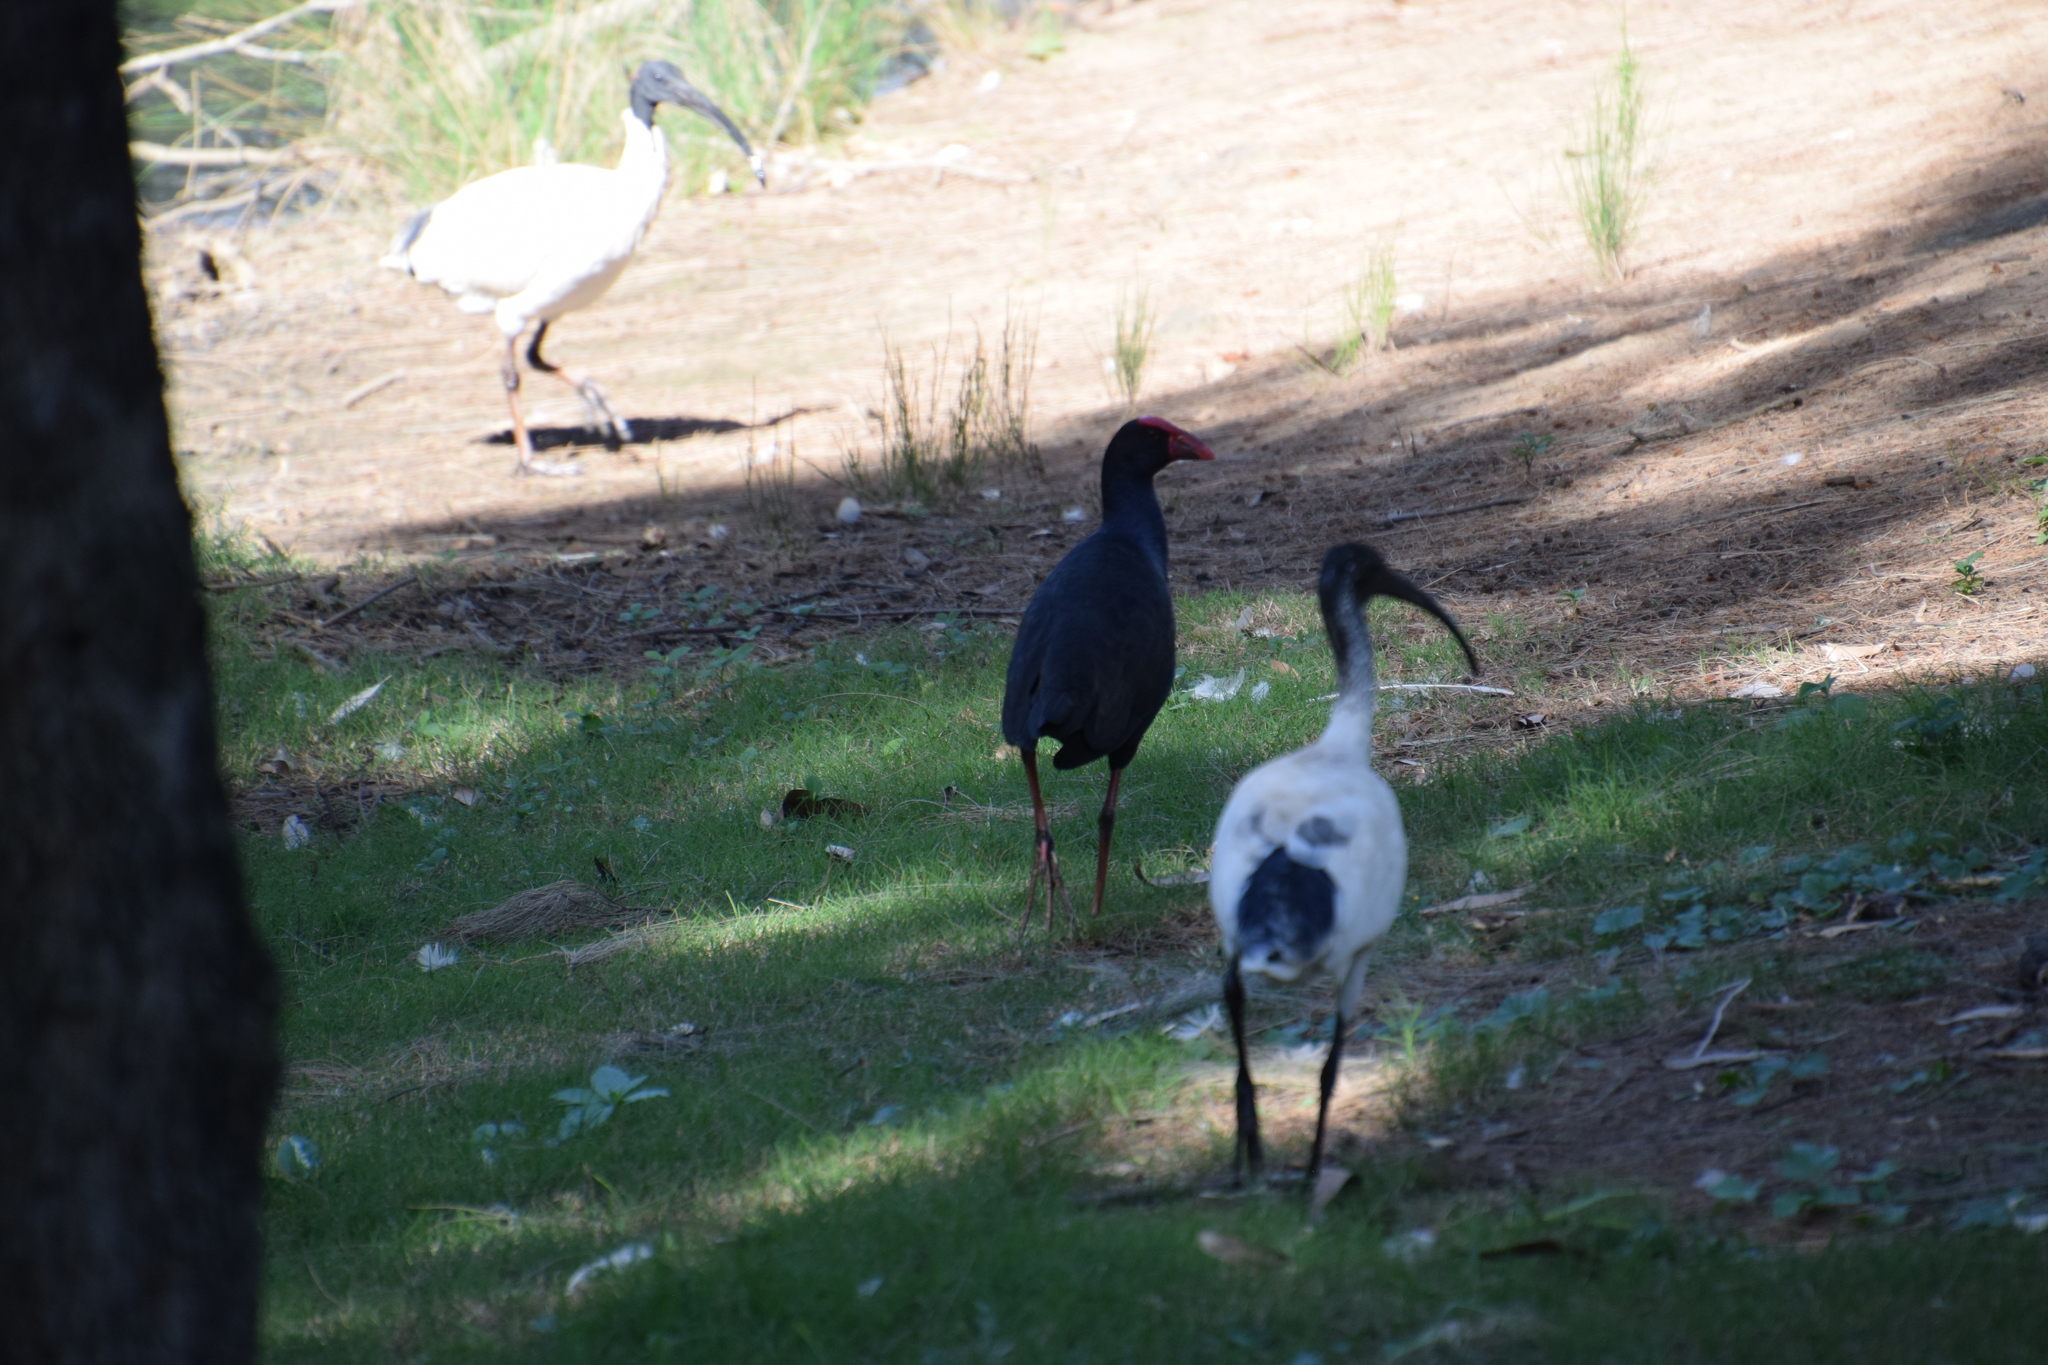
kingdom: Animalia
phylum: Chordata
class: Aves
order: Gruiformes
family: Rallidae
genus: Porphyrio
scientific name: Porphyrio melanotus
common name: Australasian swamphen
